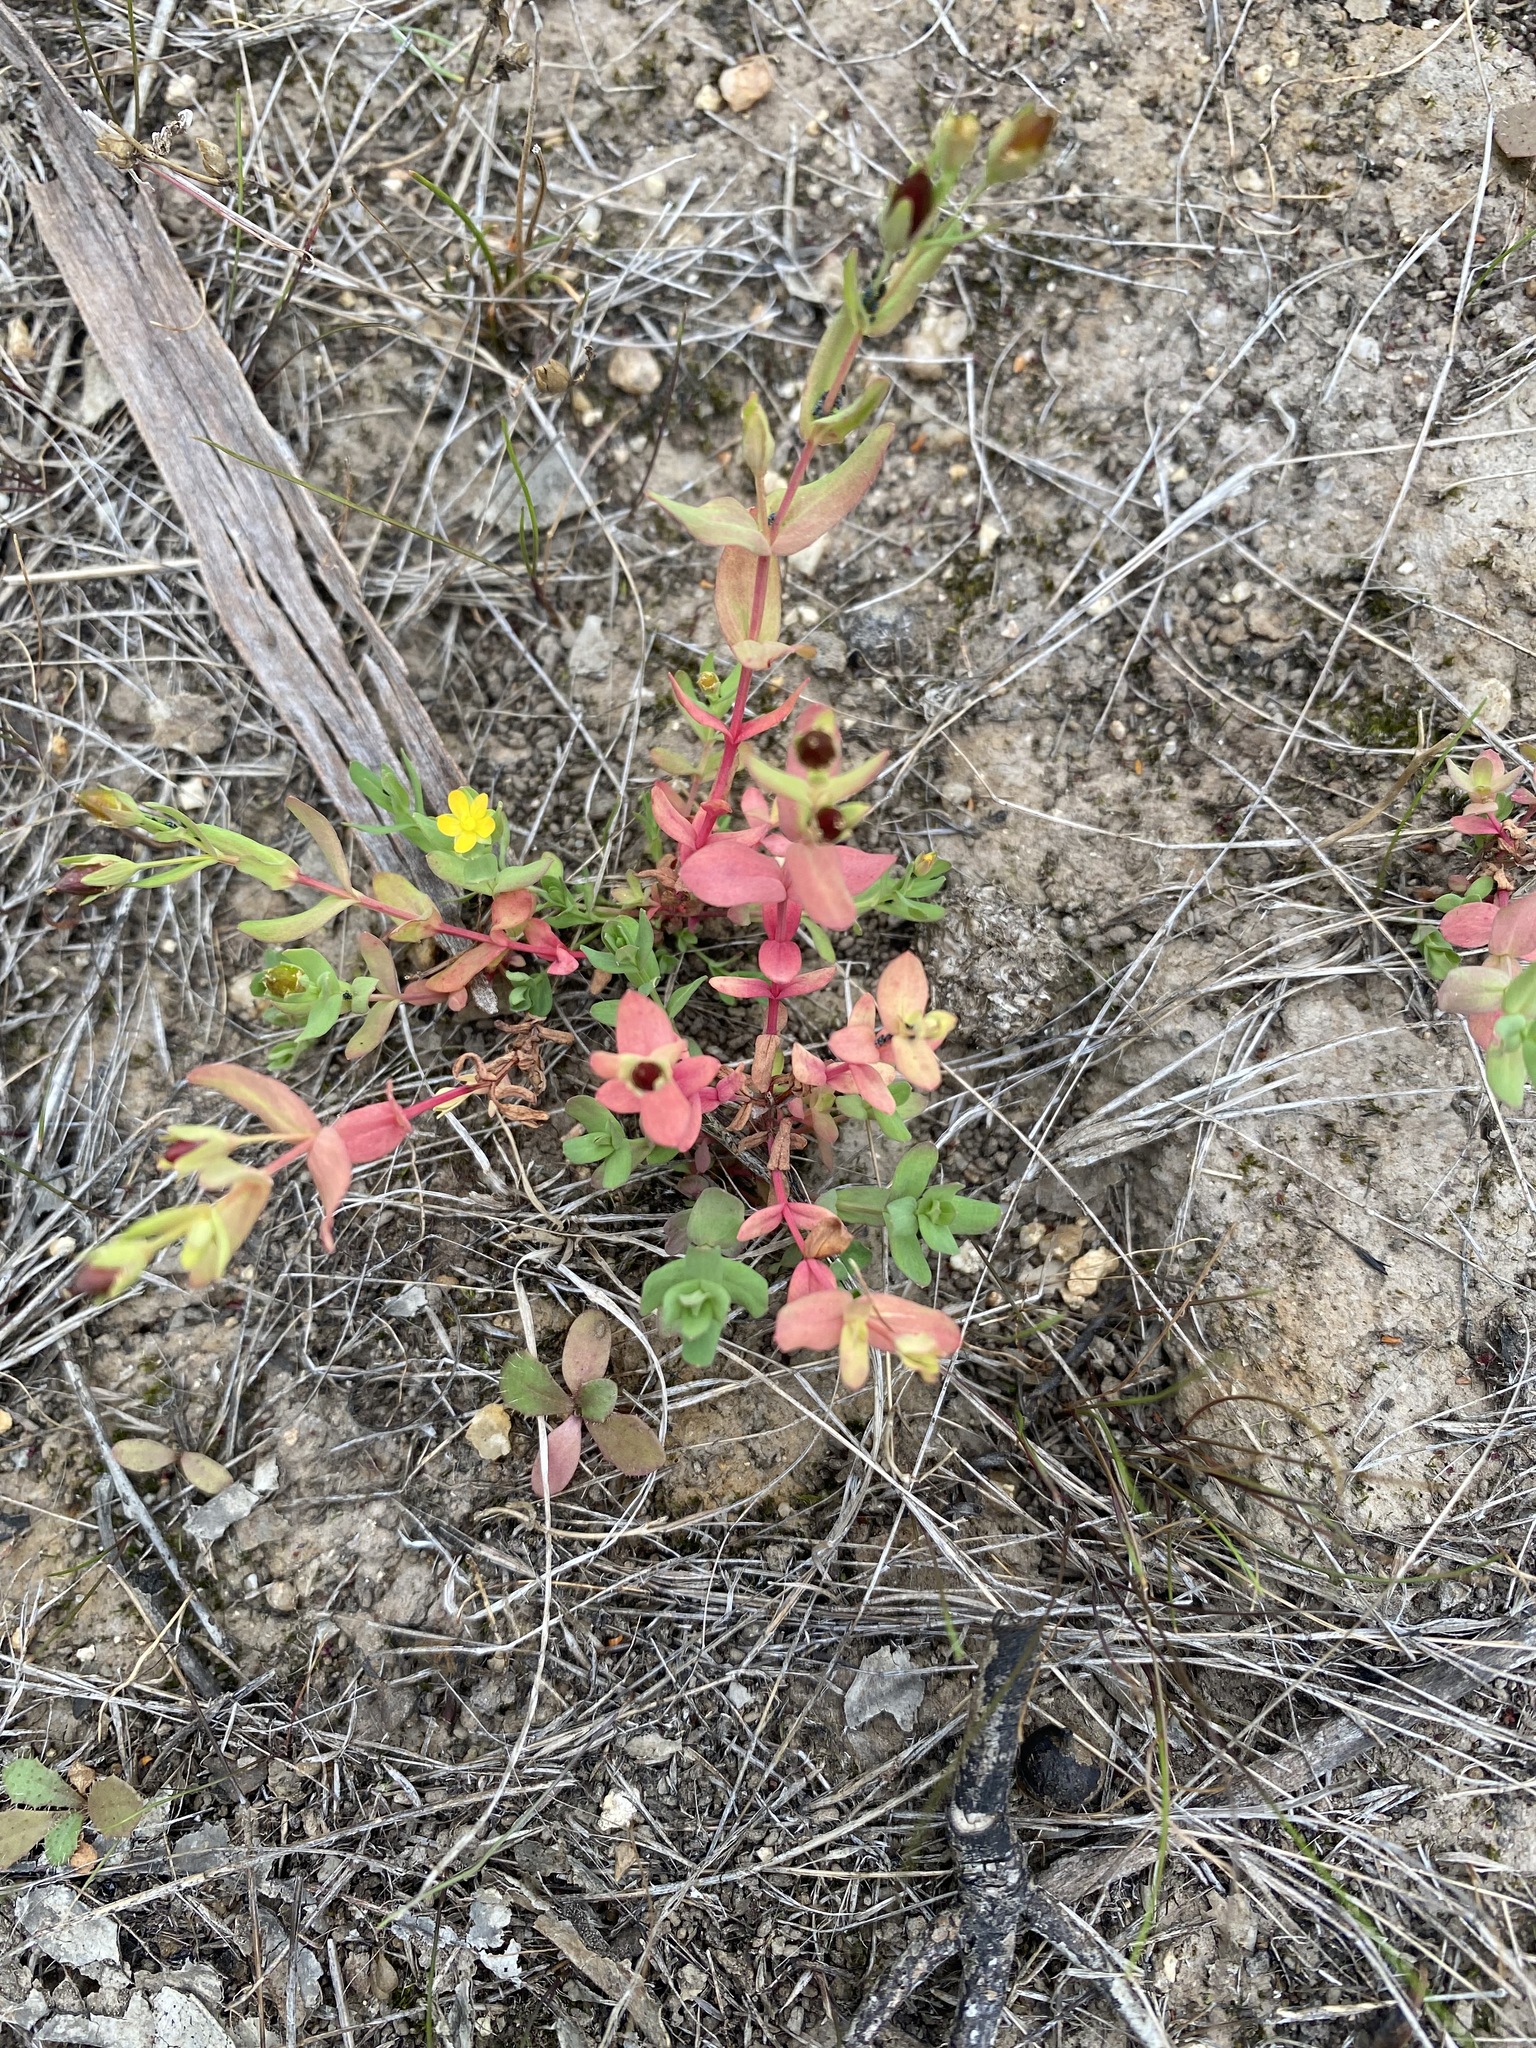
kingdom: Plantae
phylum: Tracheophyta
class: Magnoliopsida
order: Malpighiales
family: Hypericaceae
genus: Hypericum
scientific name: Hypericum gramineum
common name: Grassy st. johnswort
